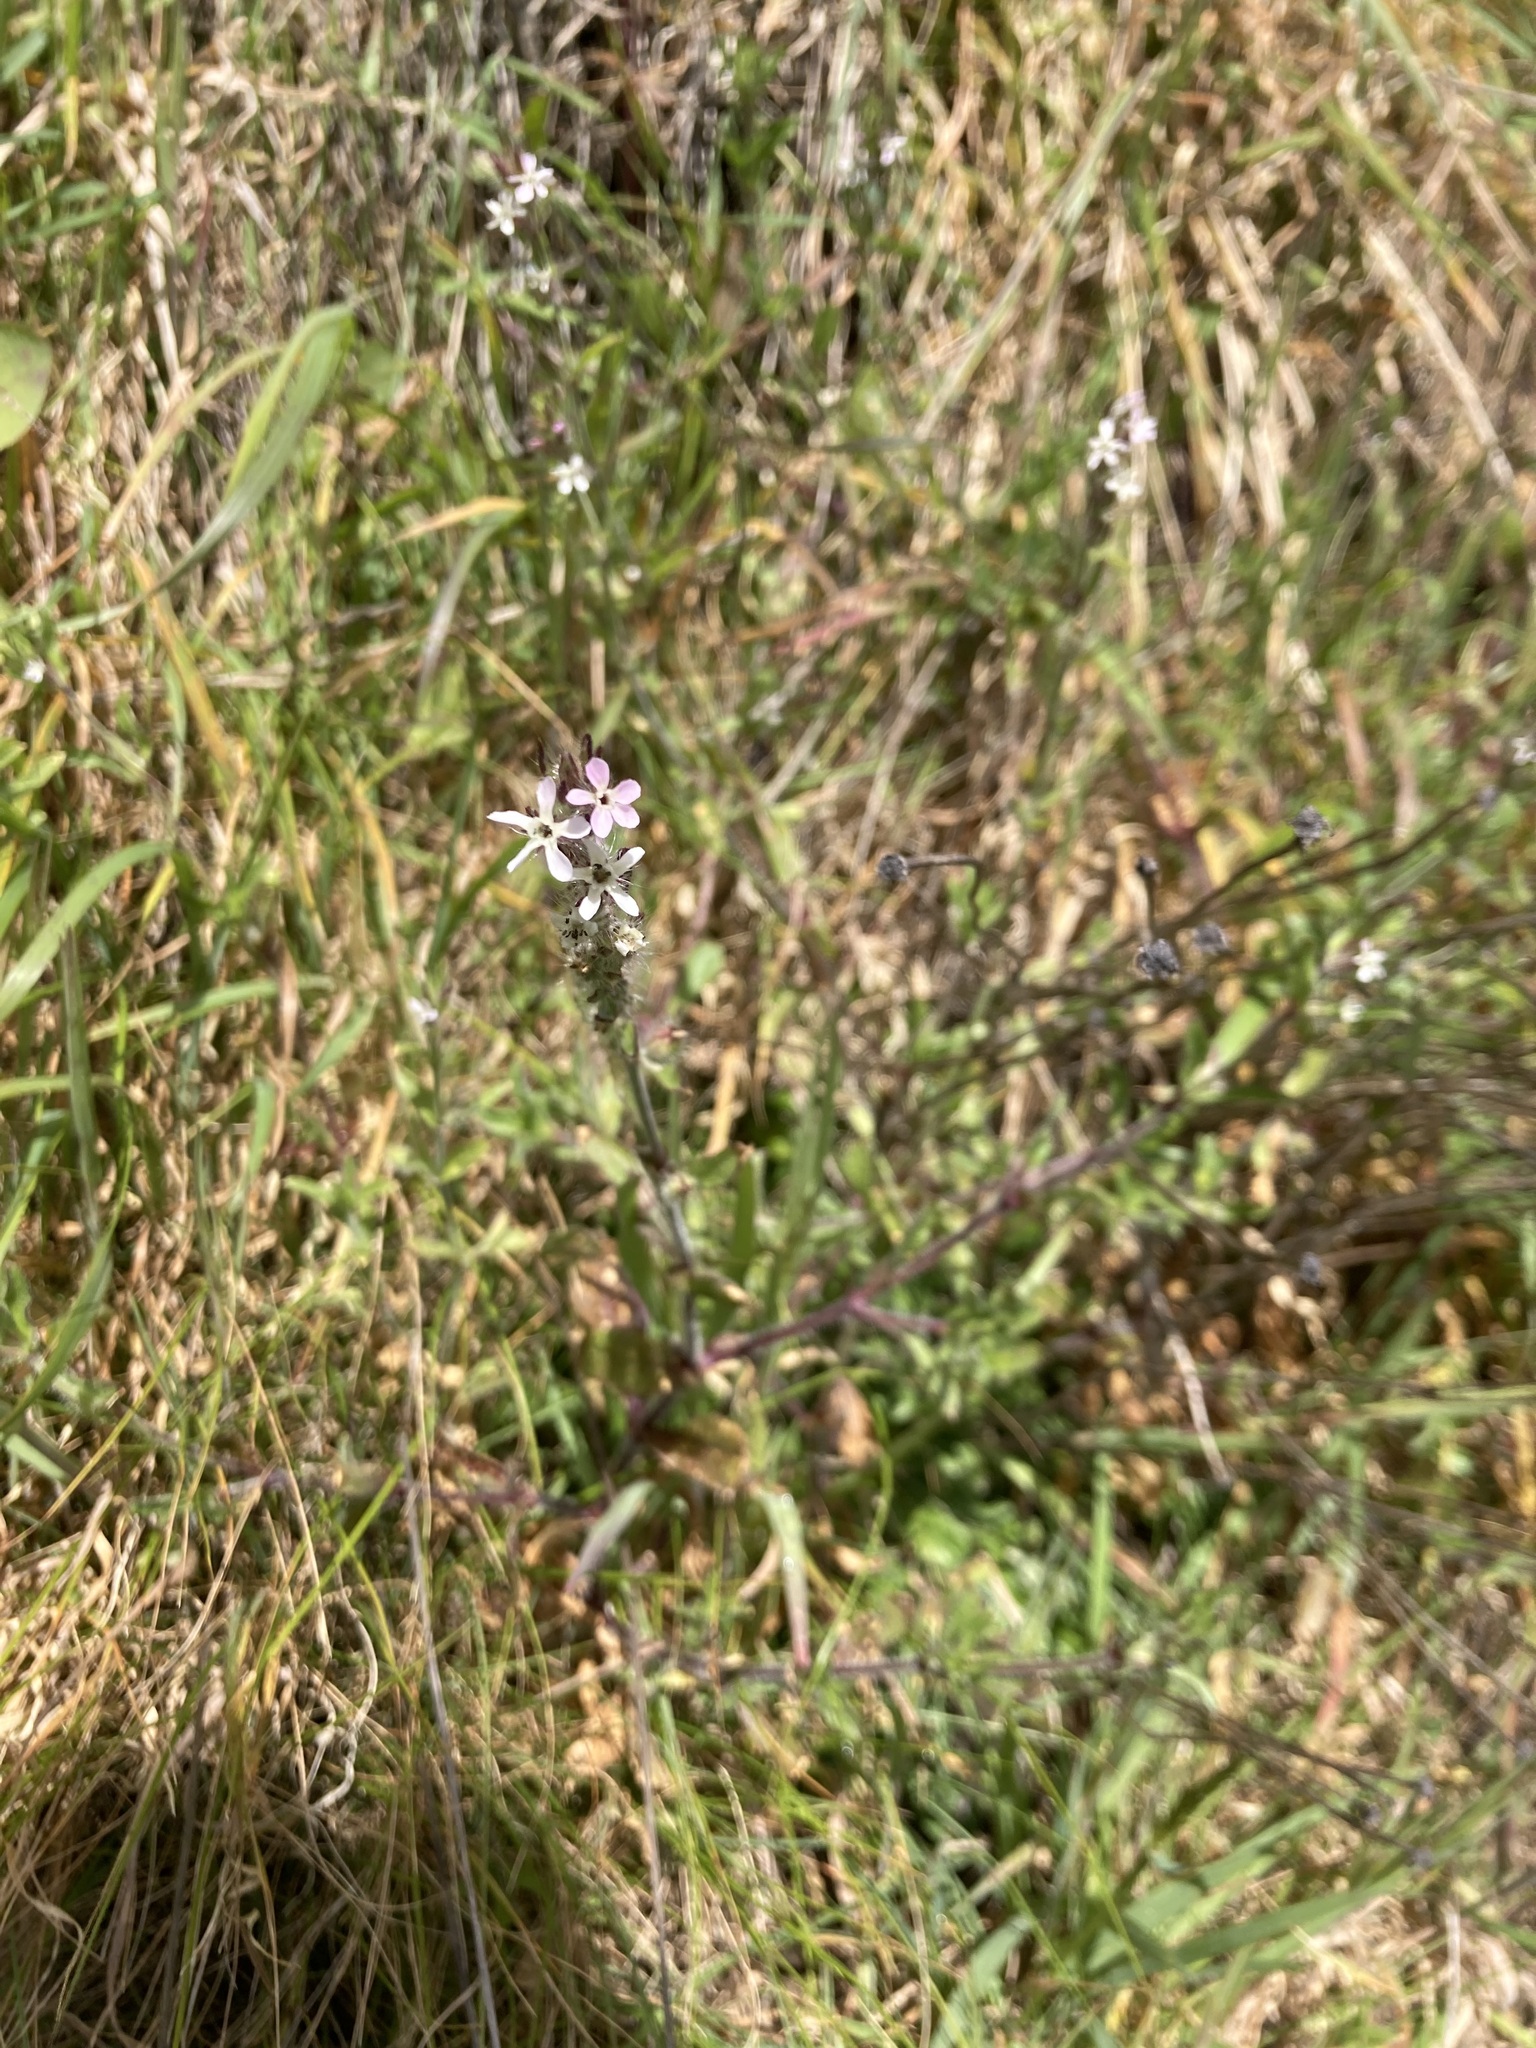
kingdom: Plantae
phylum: Tracheophyta
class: Magnoliopsida
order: Caryophyllales
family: Caryophyllaceae
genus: Silene
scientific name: Silene gallica
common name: Small-flowered catchfly
